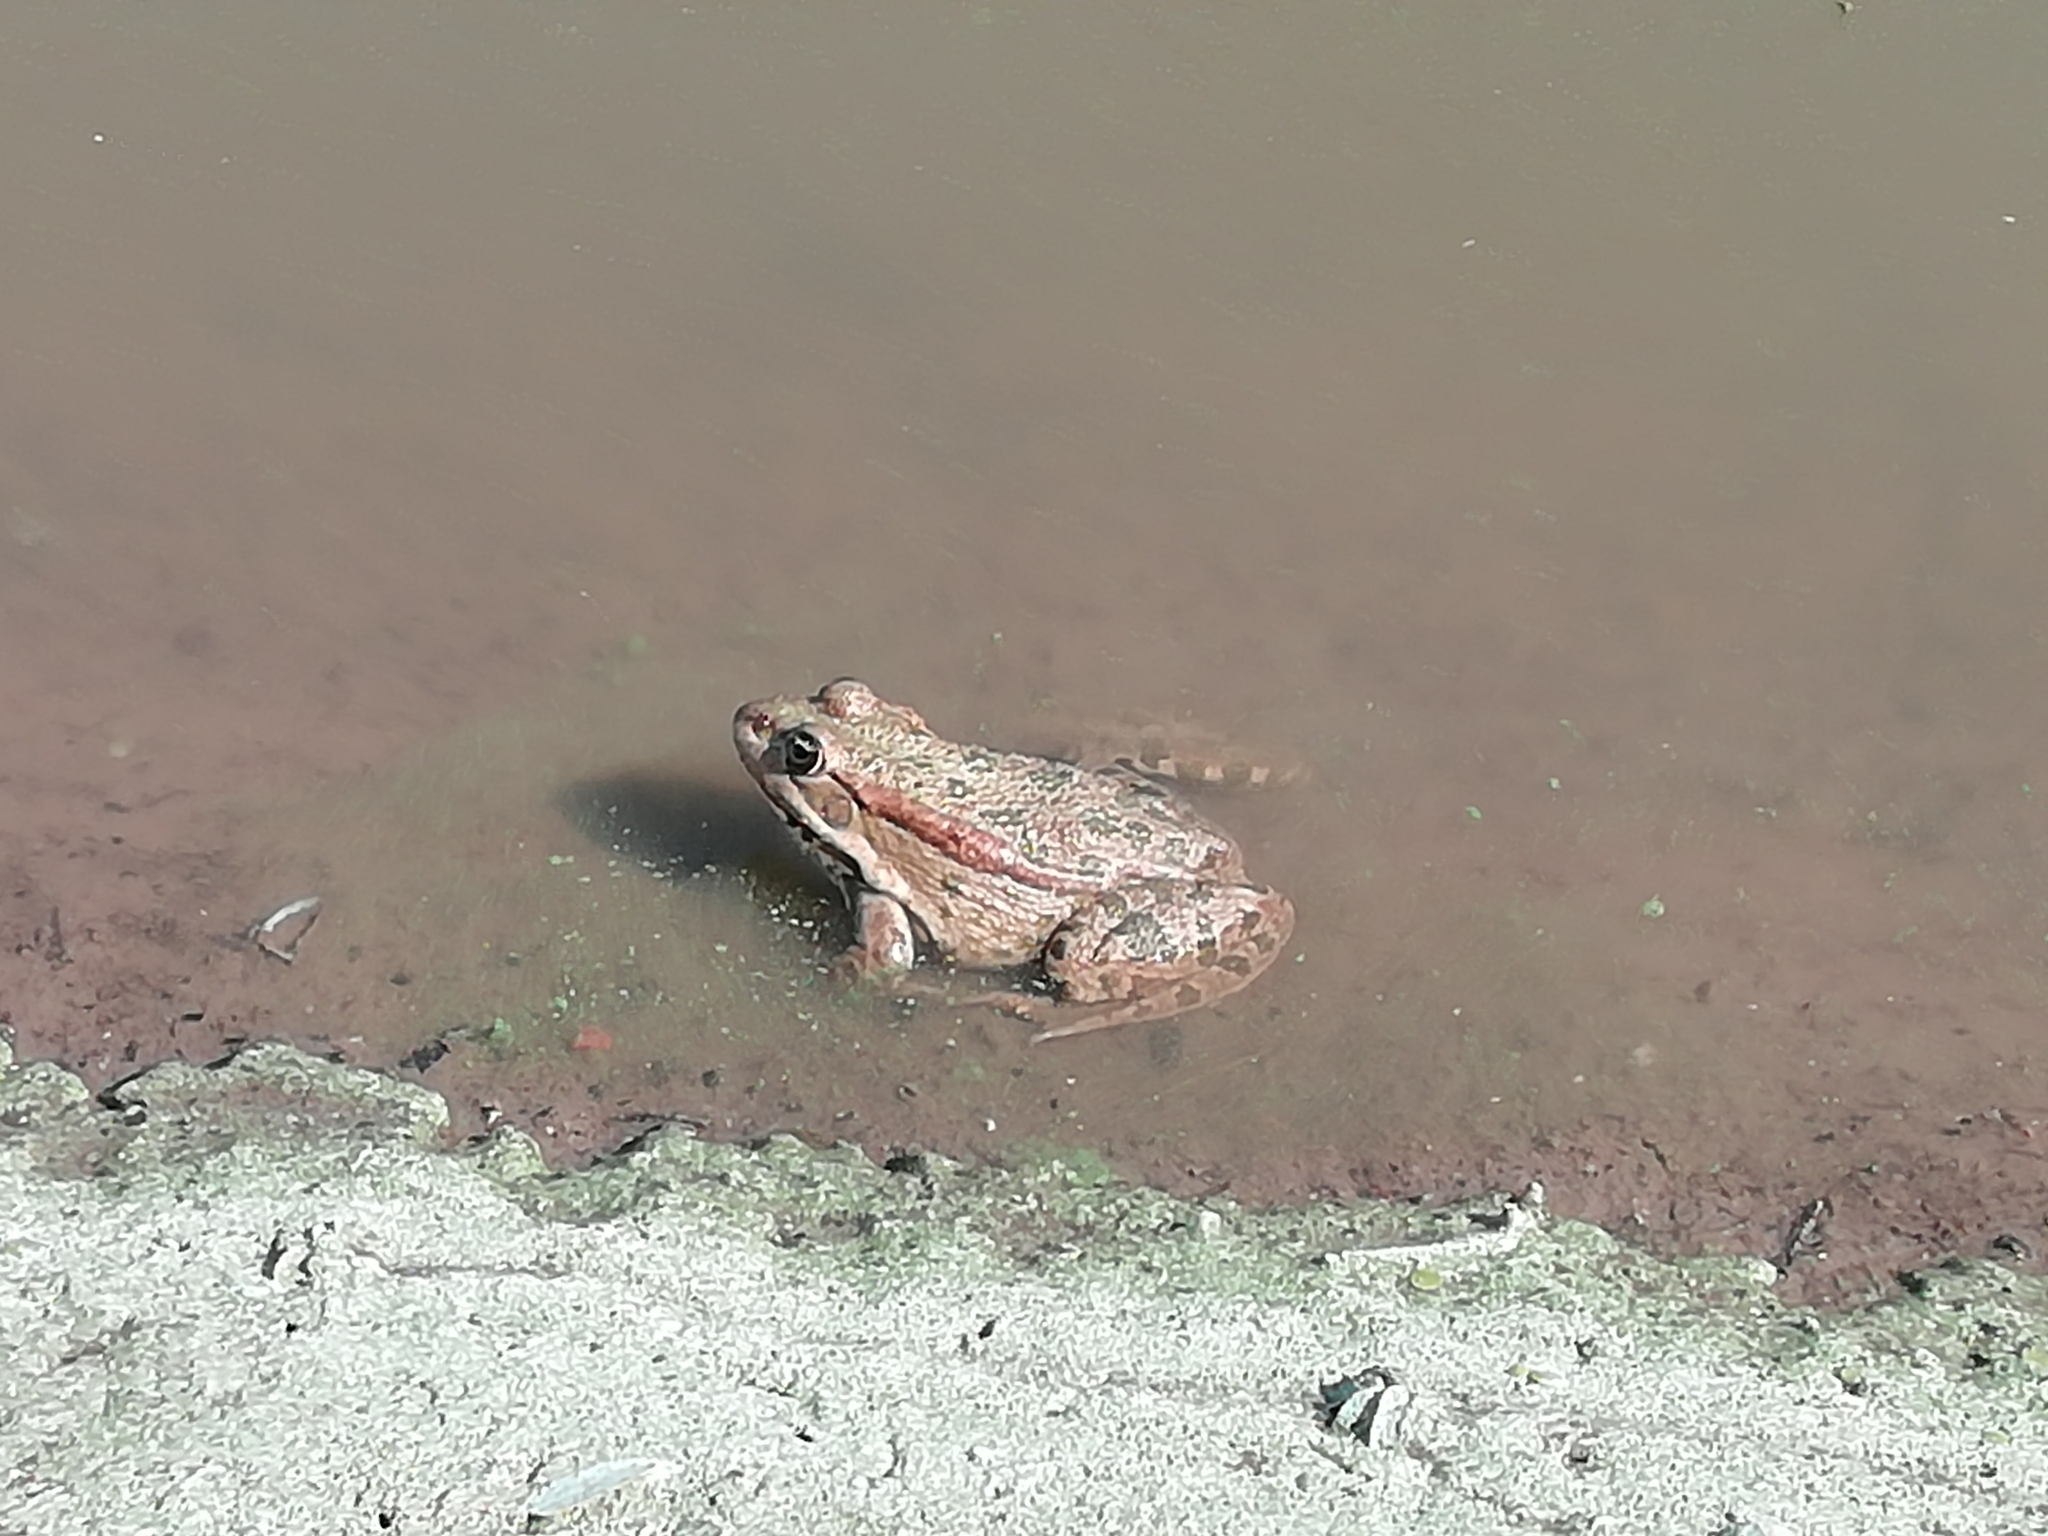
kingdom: Animalia
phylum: Chordata
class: Amphibia
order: Anura
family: Ranidae
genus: Pelophylax
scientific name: Pelophylax ridibundus
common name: Marsh frog
